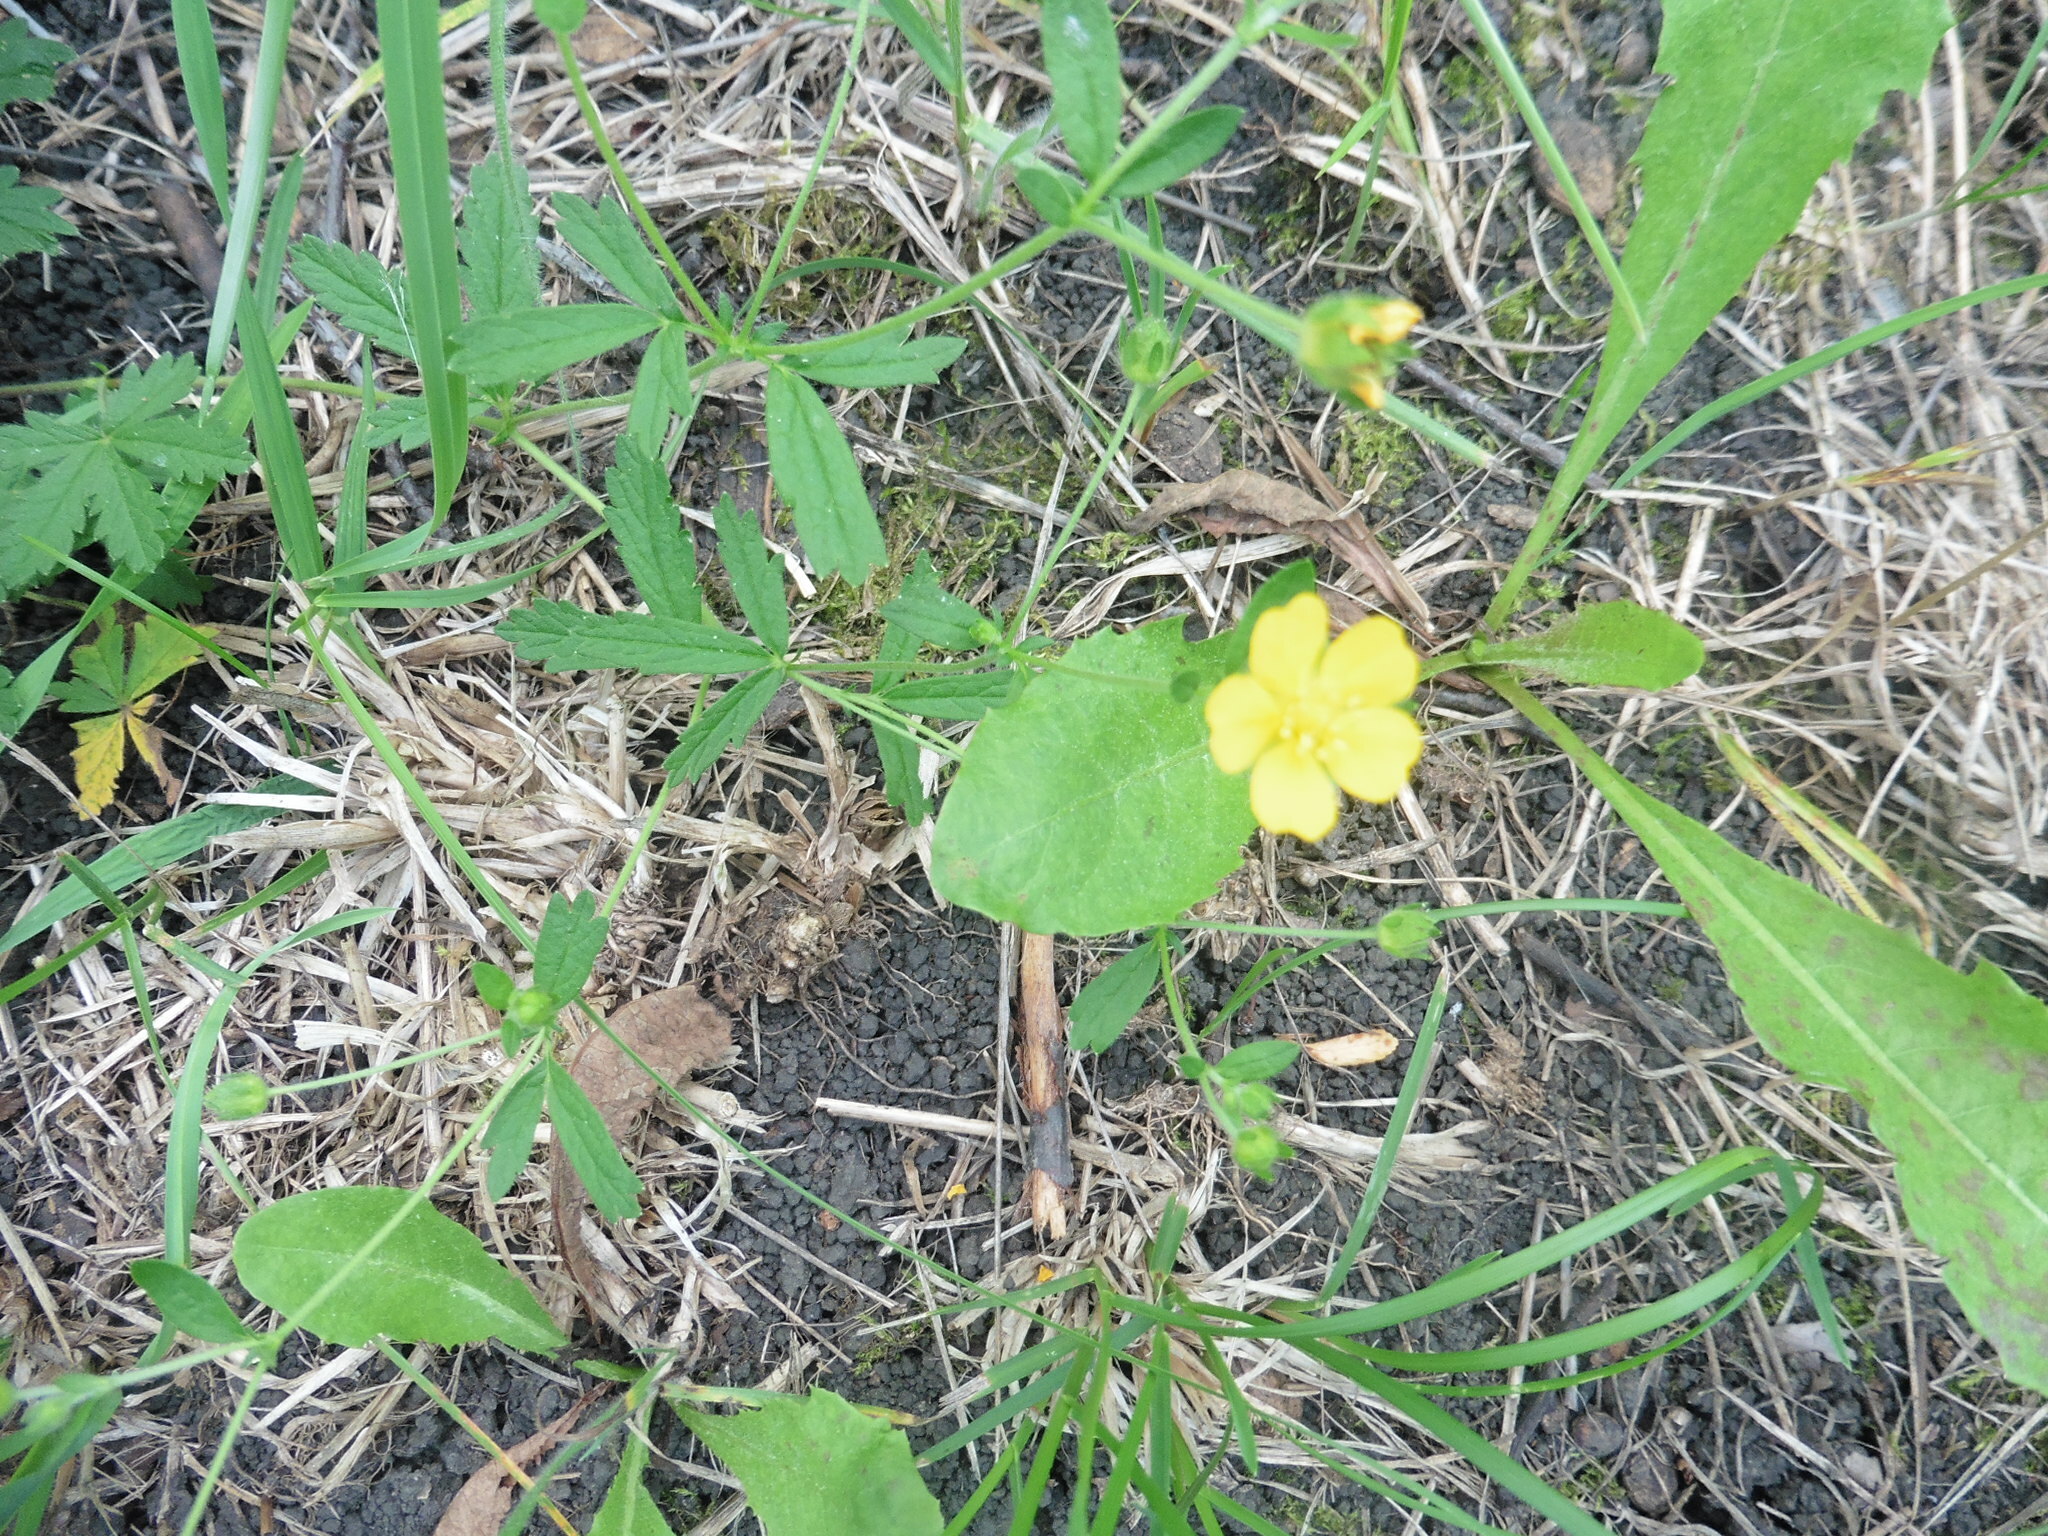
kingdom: Plantae
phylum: Tracheophyta
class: Magnoliopsida
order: Rosales
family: Rosaceae
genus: Potentilla
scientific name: Potentilla thuringiaca
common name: European cinquefoil
